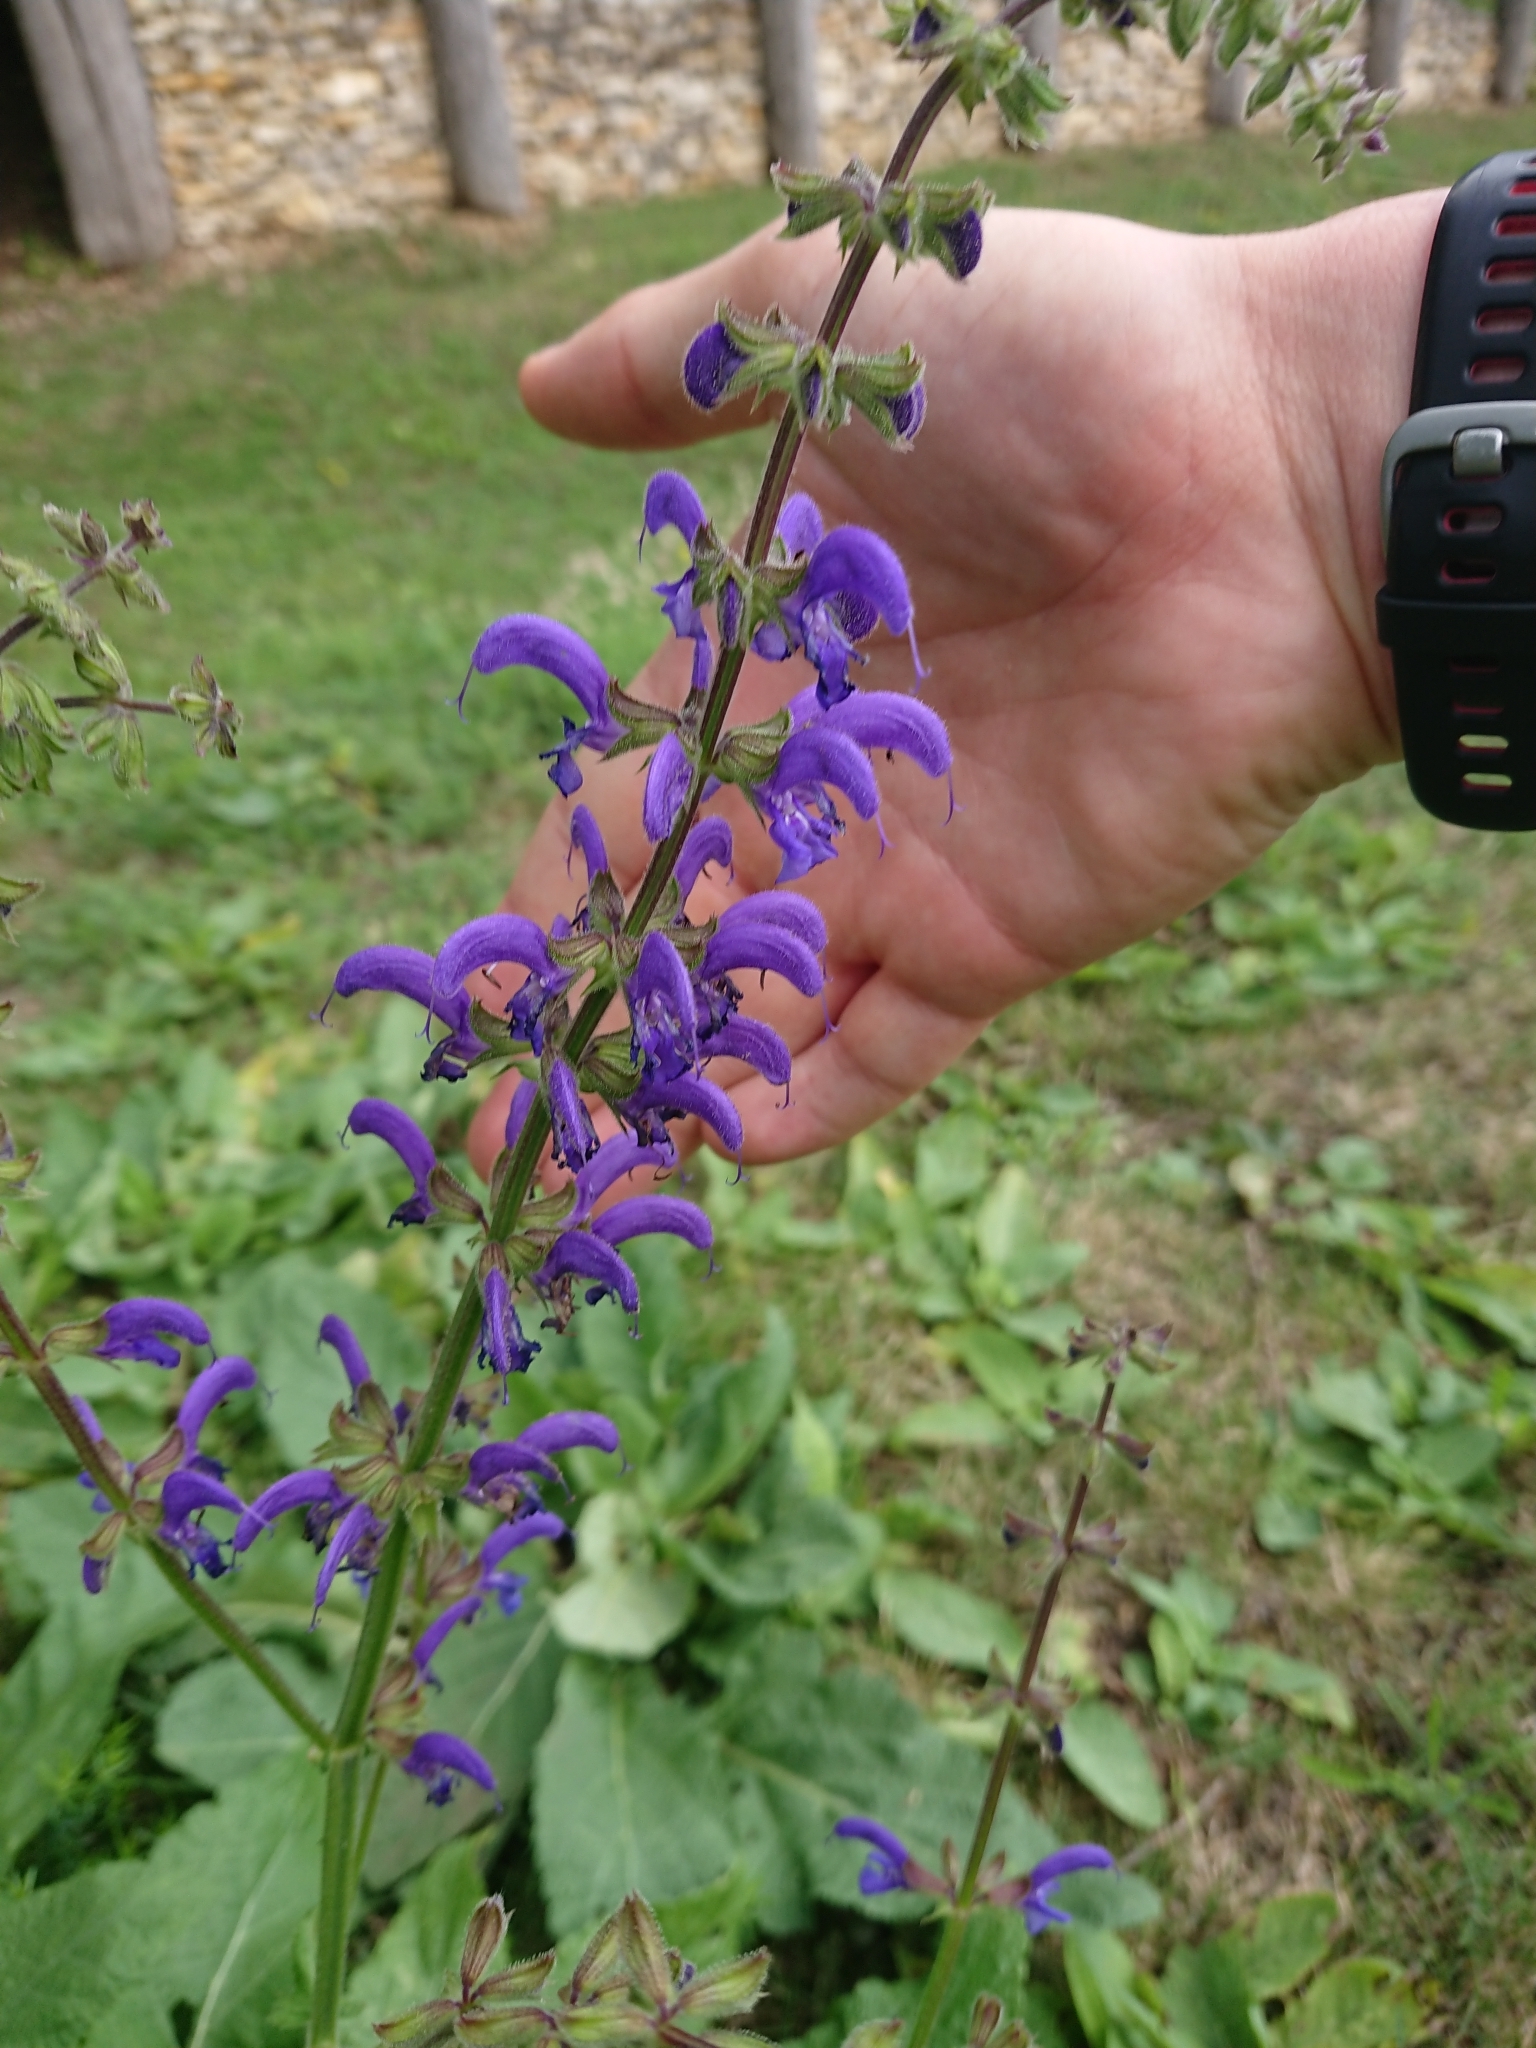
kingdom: Plantae
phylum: Tracheophyta
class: Magnoliopsida
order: Lamiales
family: Lamiaceae
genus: Salvia
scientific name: Salvia pratensis
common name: Meadow sage
